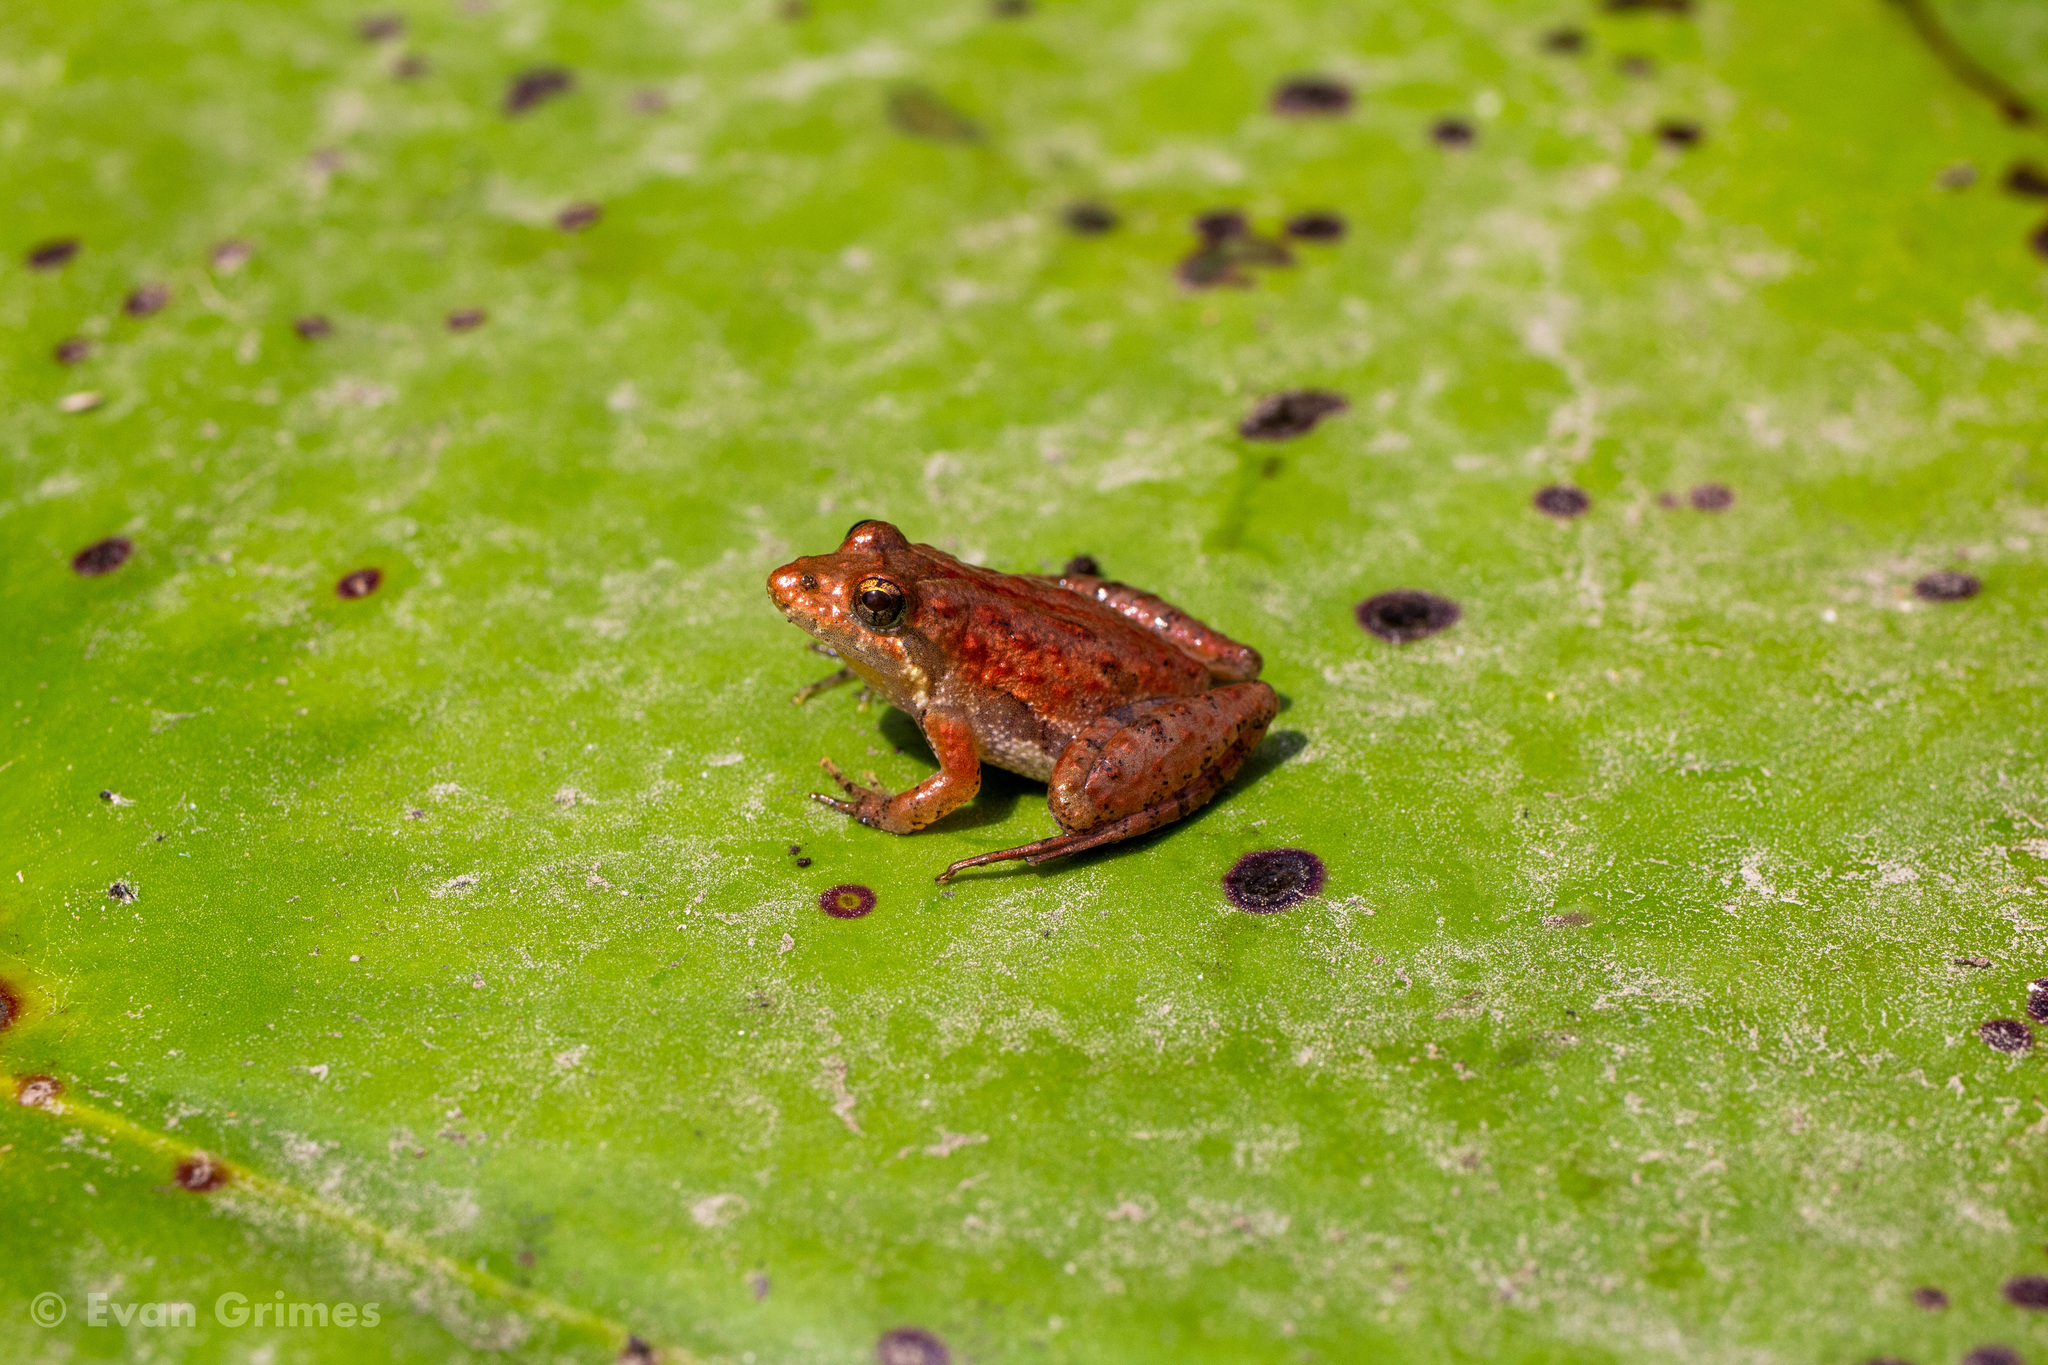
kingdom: Animalia
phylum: Chordata
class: Amphibia
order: Anura
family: Hylidae
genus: Acris
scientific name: Acris gryllus
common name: Southern cricket frog
